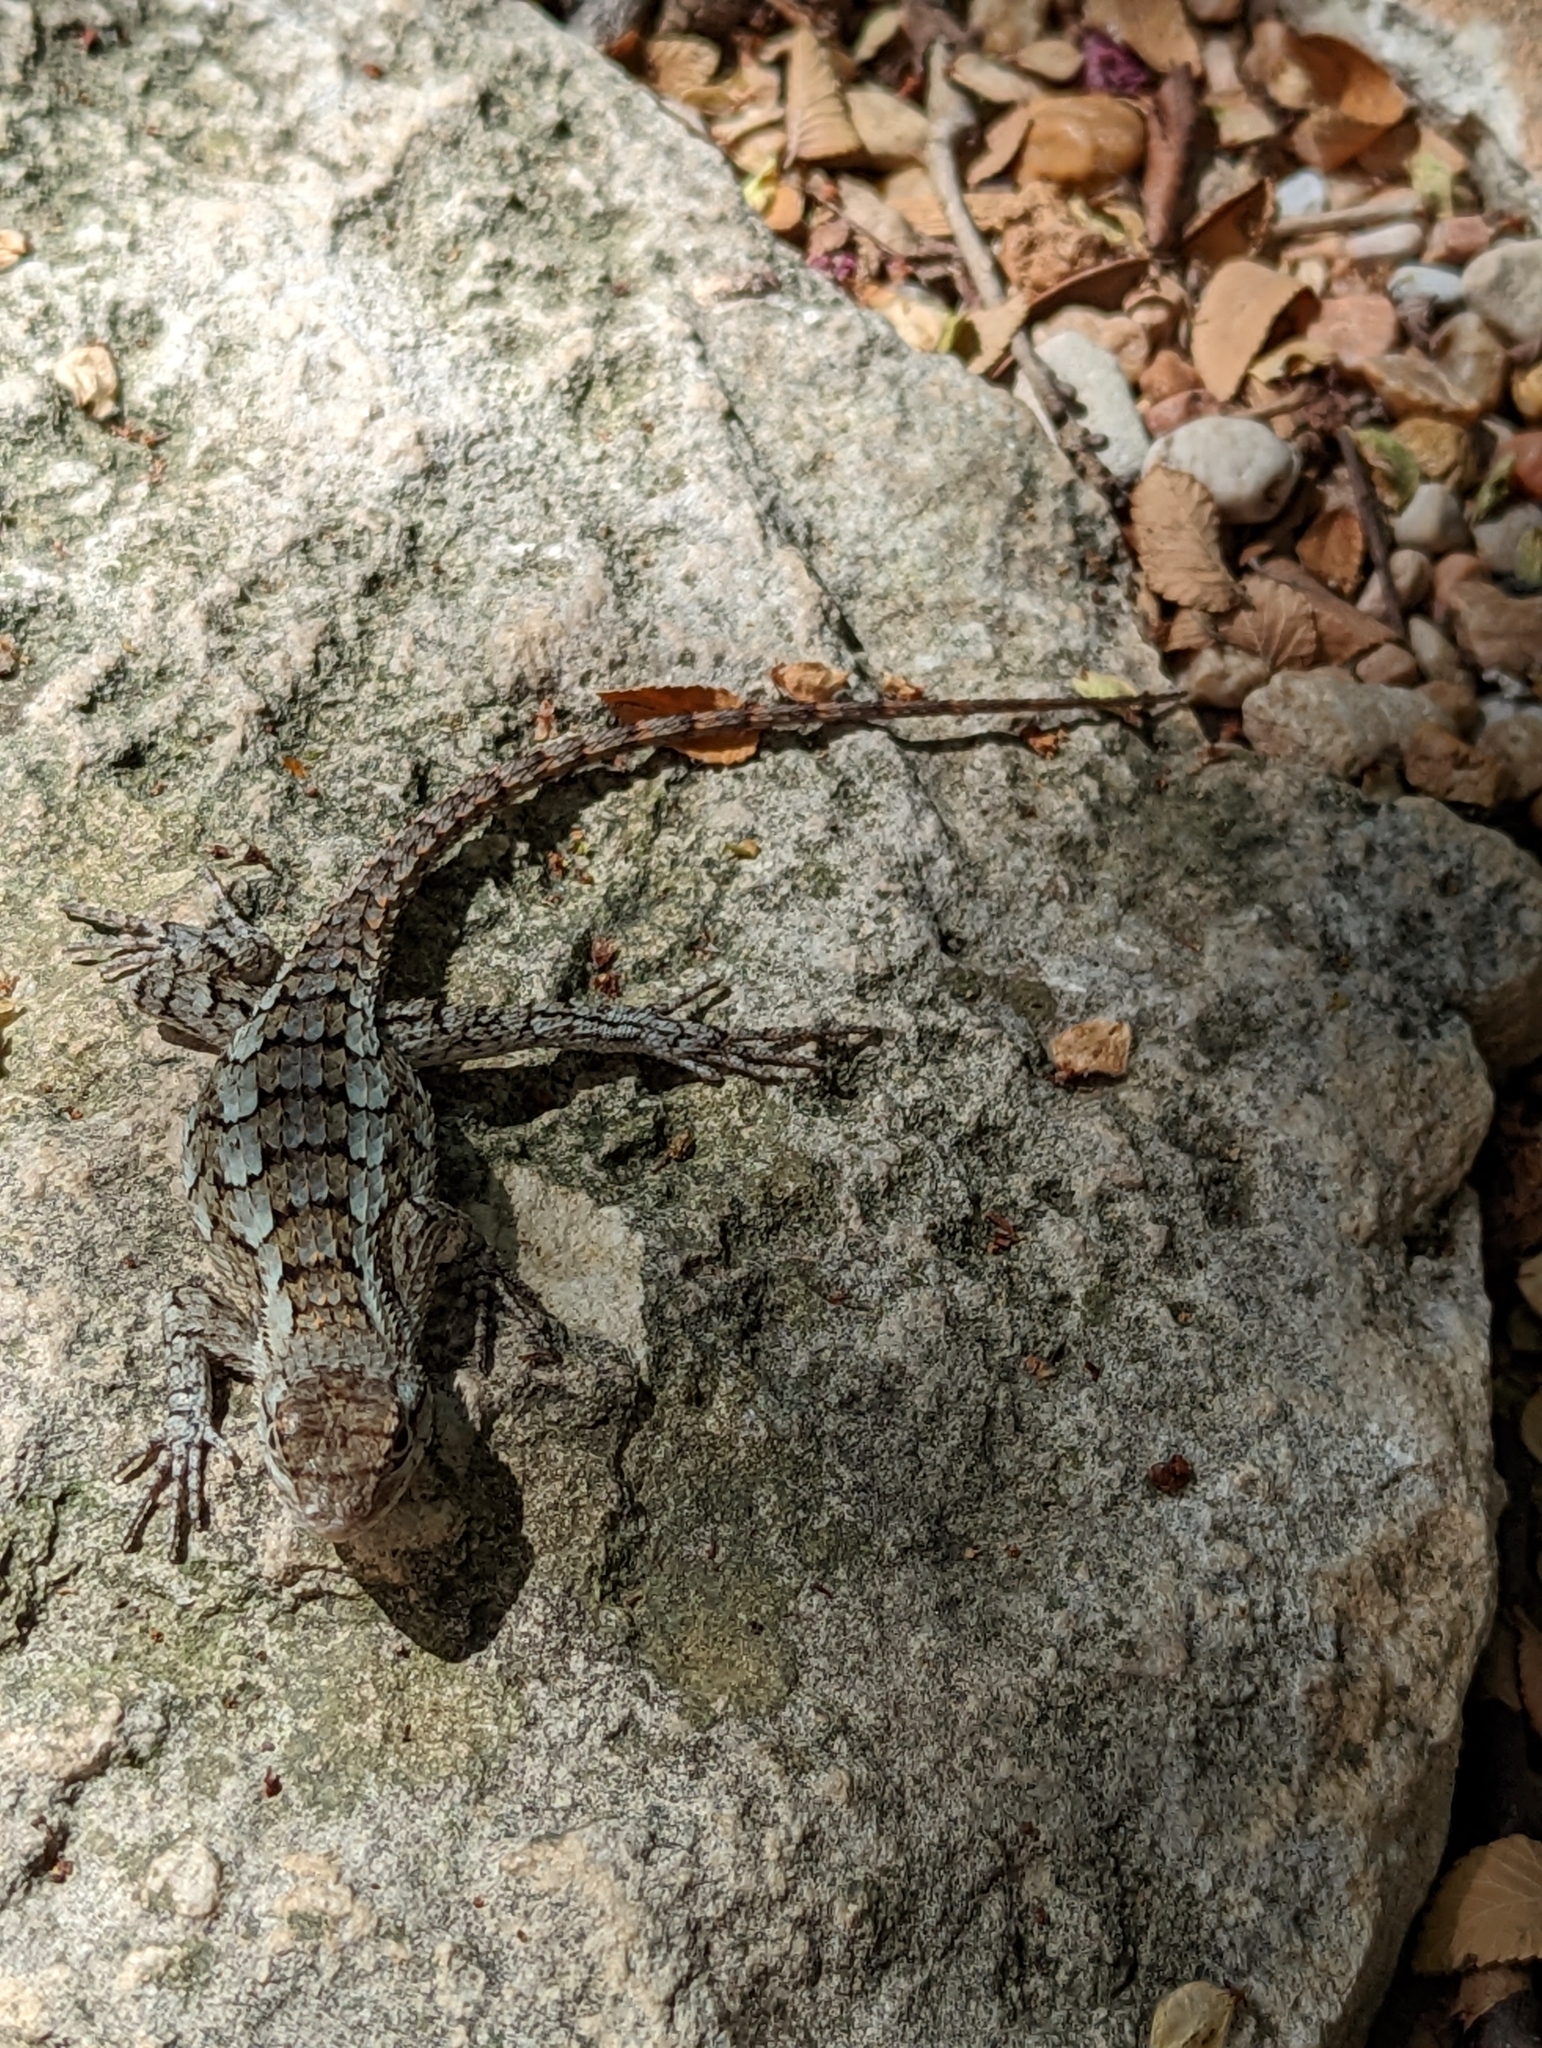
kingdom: Animalia
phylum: Chordata
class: Squamata
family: Phrynosomatidae
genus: Sceloporus
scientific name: Sceloporus olivaceus
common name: Texas spiny lizard
